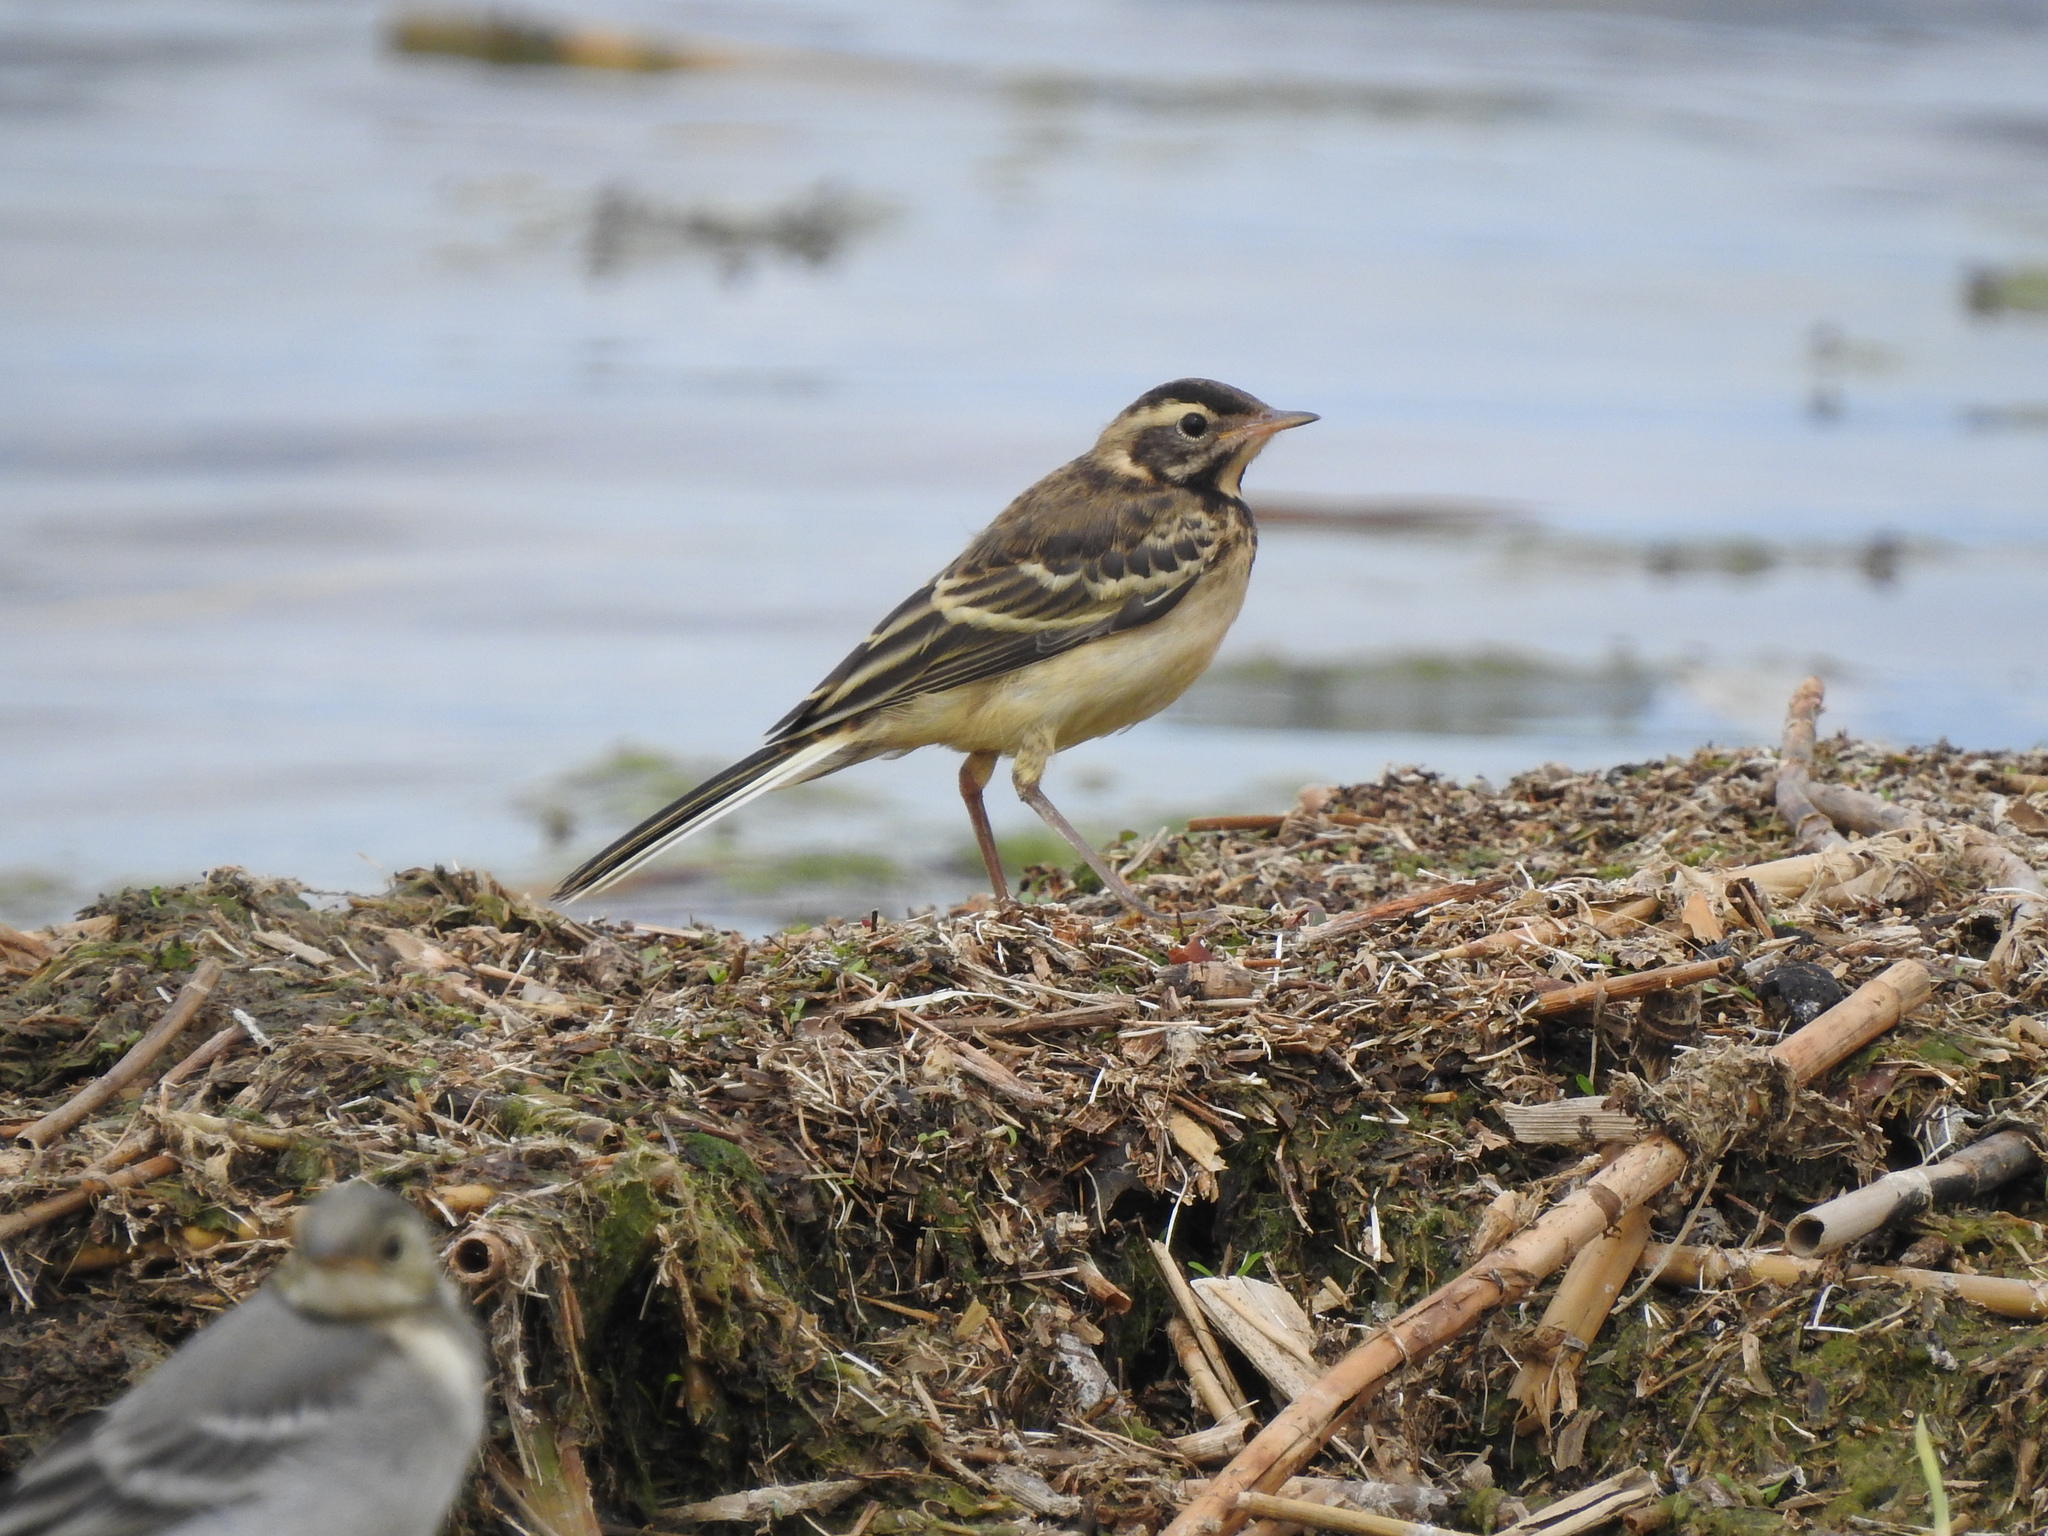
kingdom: Animalia
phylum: Chordata
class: Aves
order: Passeriformes
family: Motacillidae
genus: Motacilla
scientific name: Motacilla flava
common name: Western yellow wagtail
